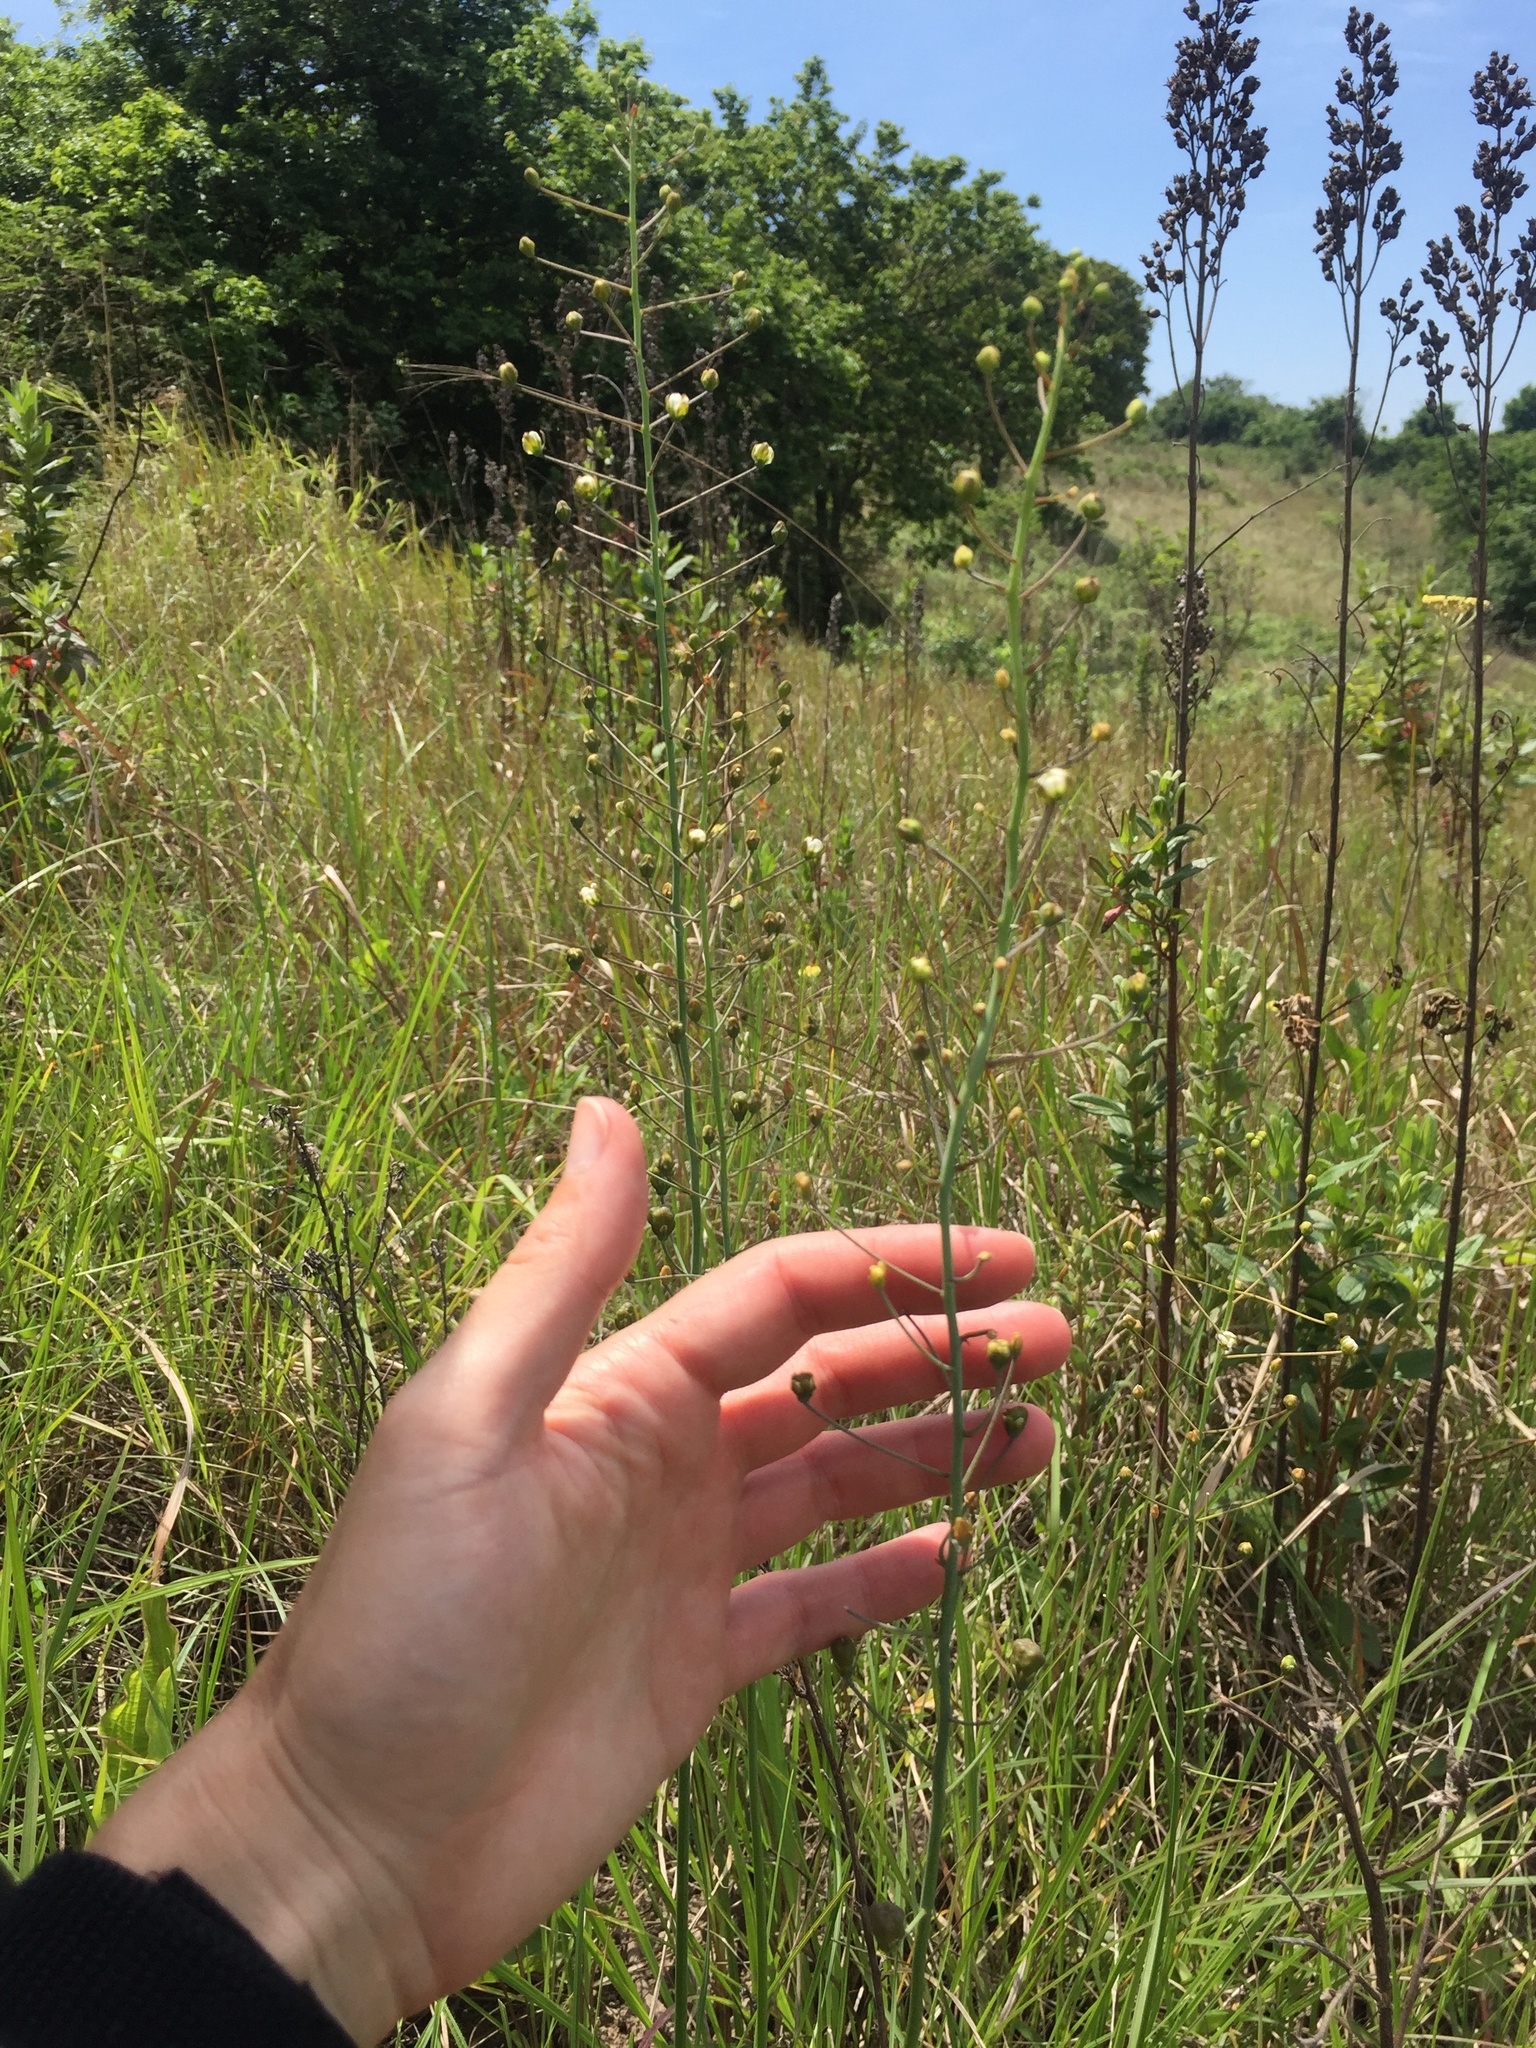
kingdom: Plantae
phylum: Tracheophyta
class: Liliopsida
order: Asparagales
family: Asparagaceae
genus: Eriospermum
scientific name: Eriospermum ornithogaloides
